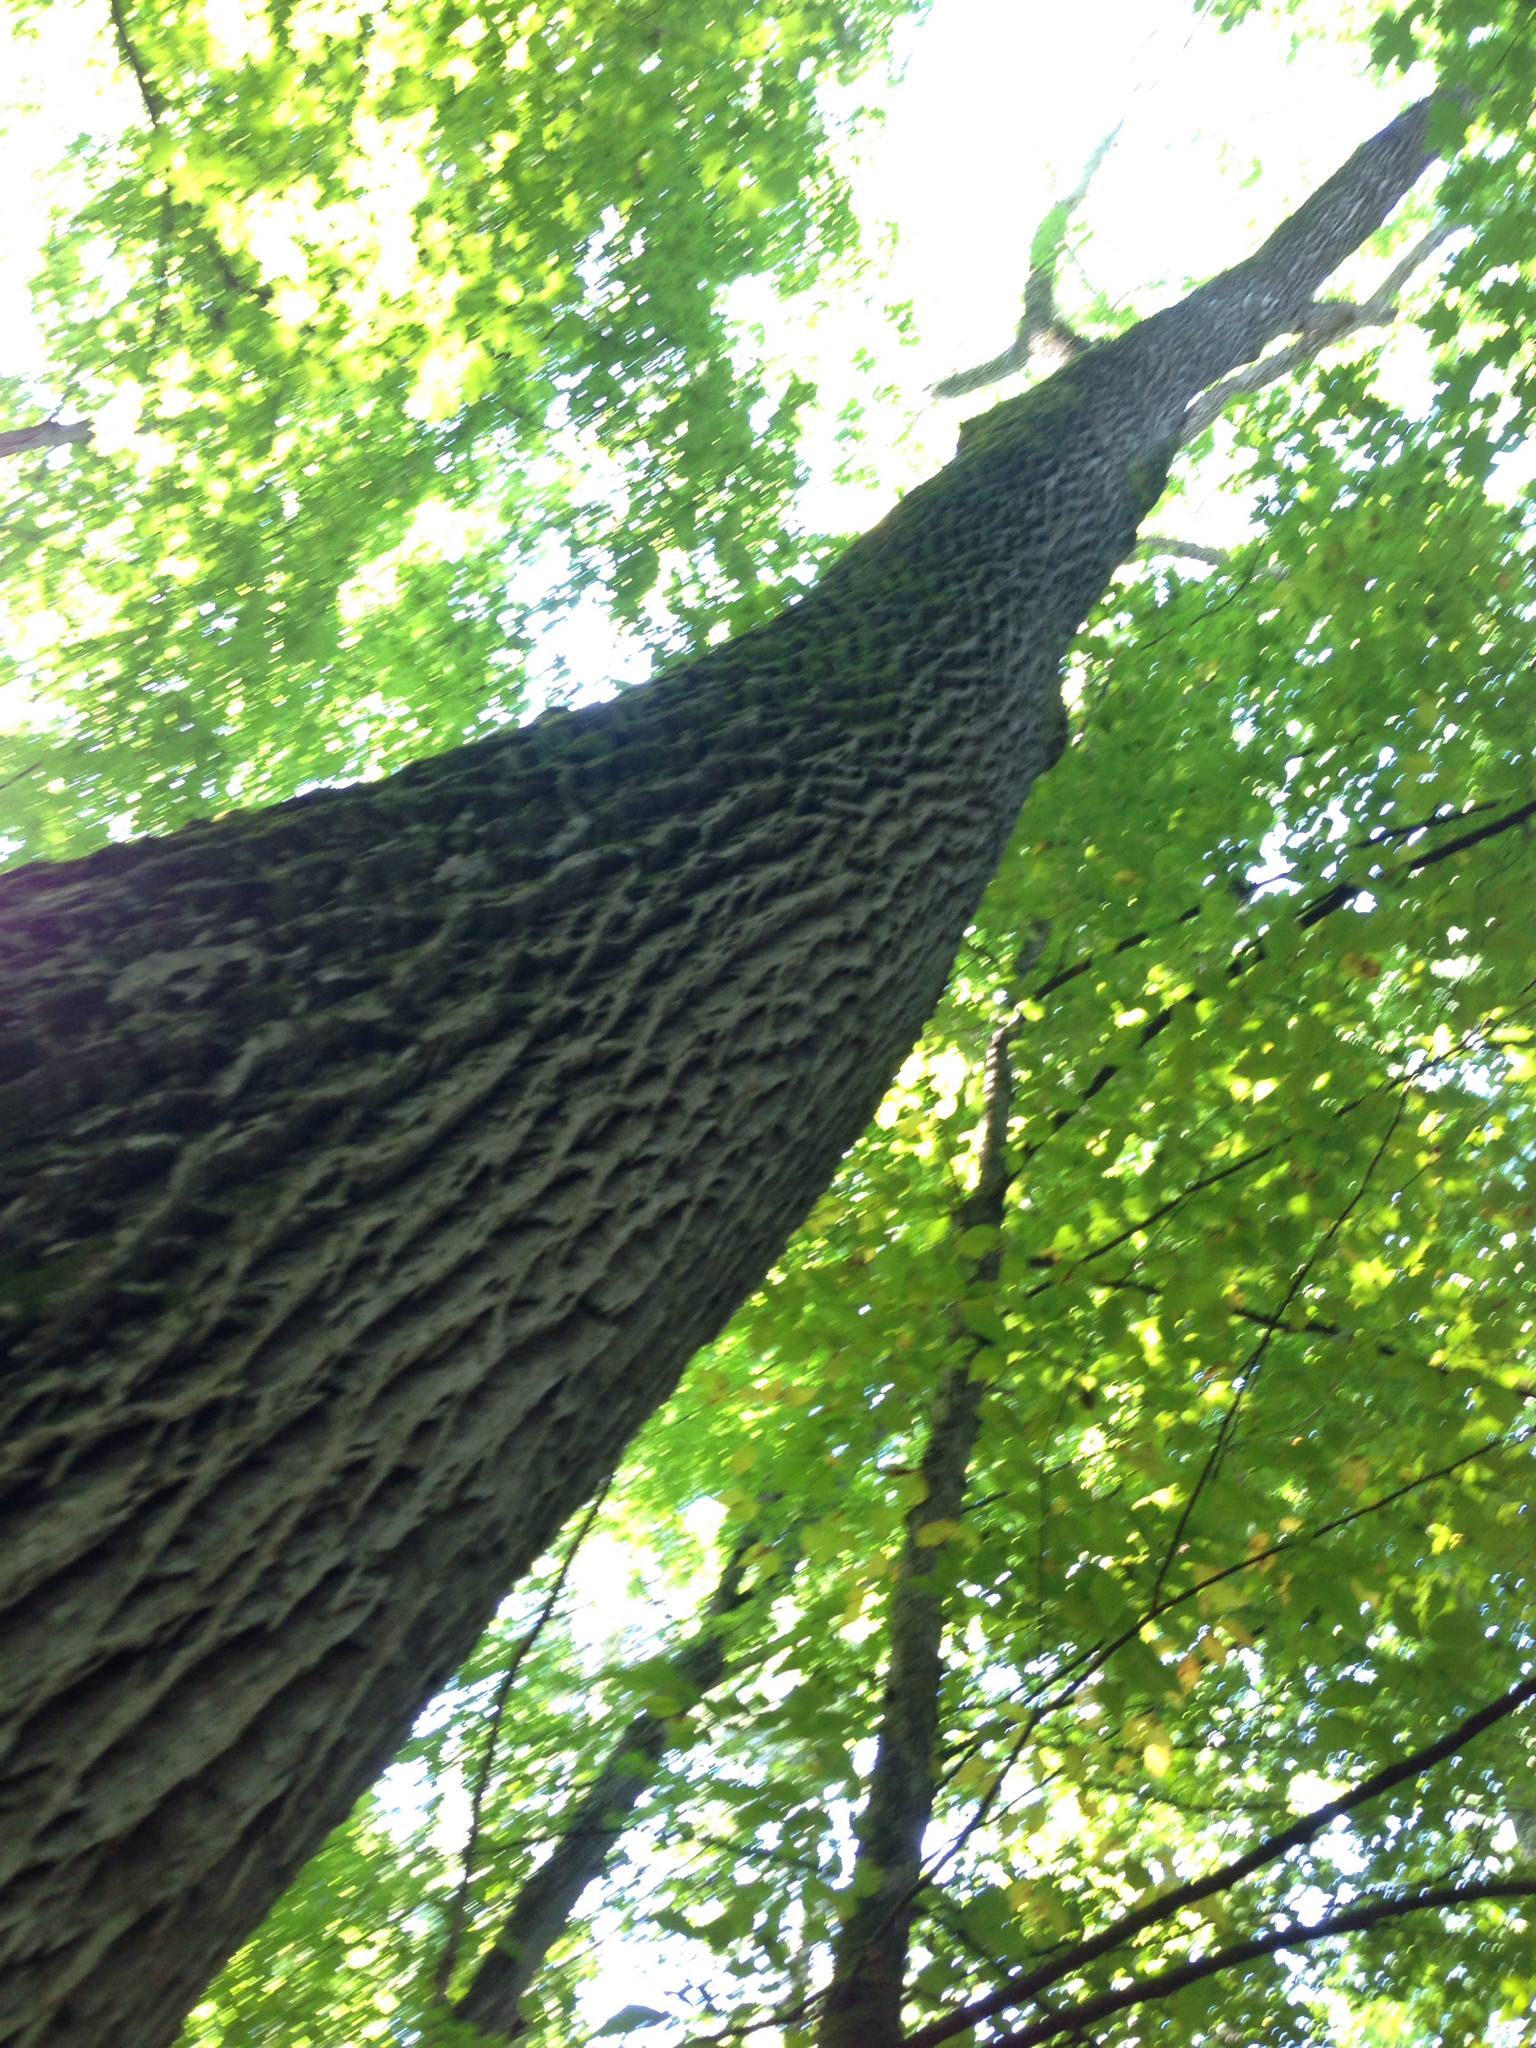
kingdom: Plantae
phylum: Tracheophyta
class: Magnoliopsida
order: Lamiales
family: Oleaceae
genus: Fraxinus
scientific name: Fraxinus americana
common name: White ash
